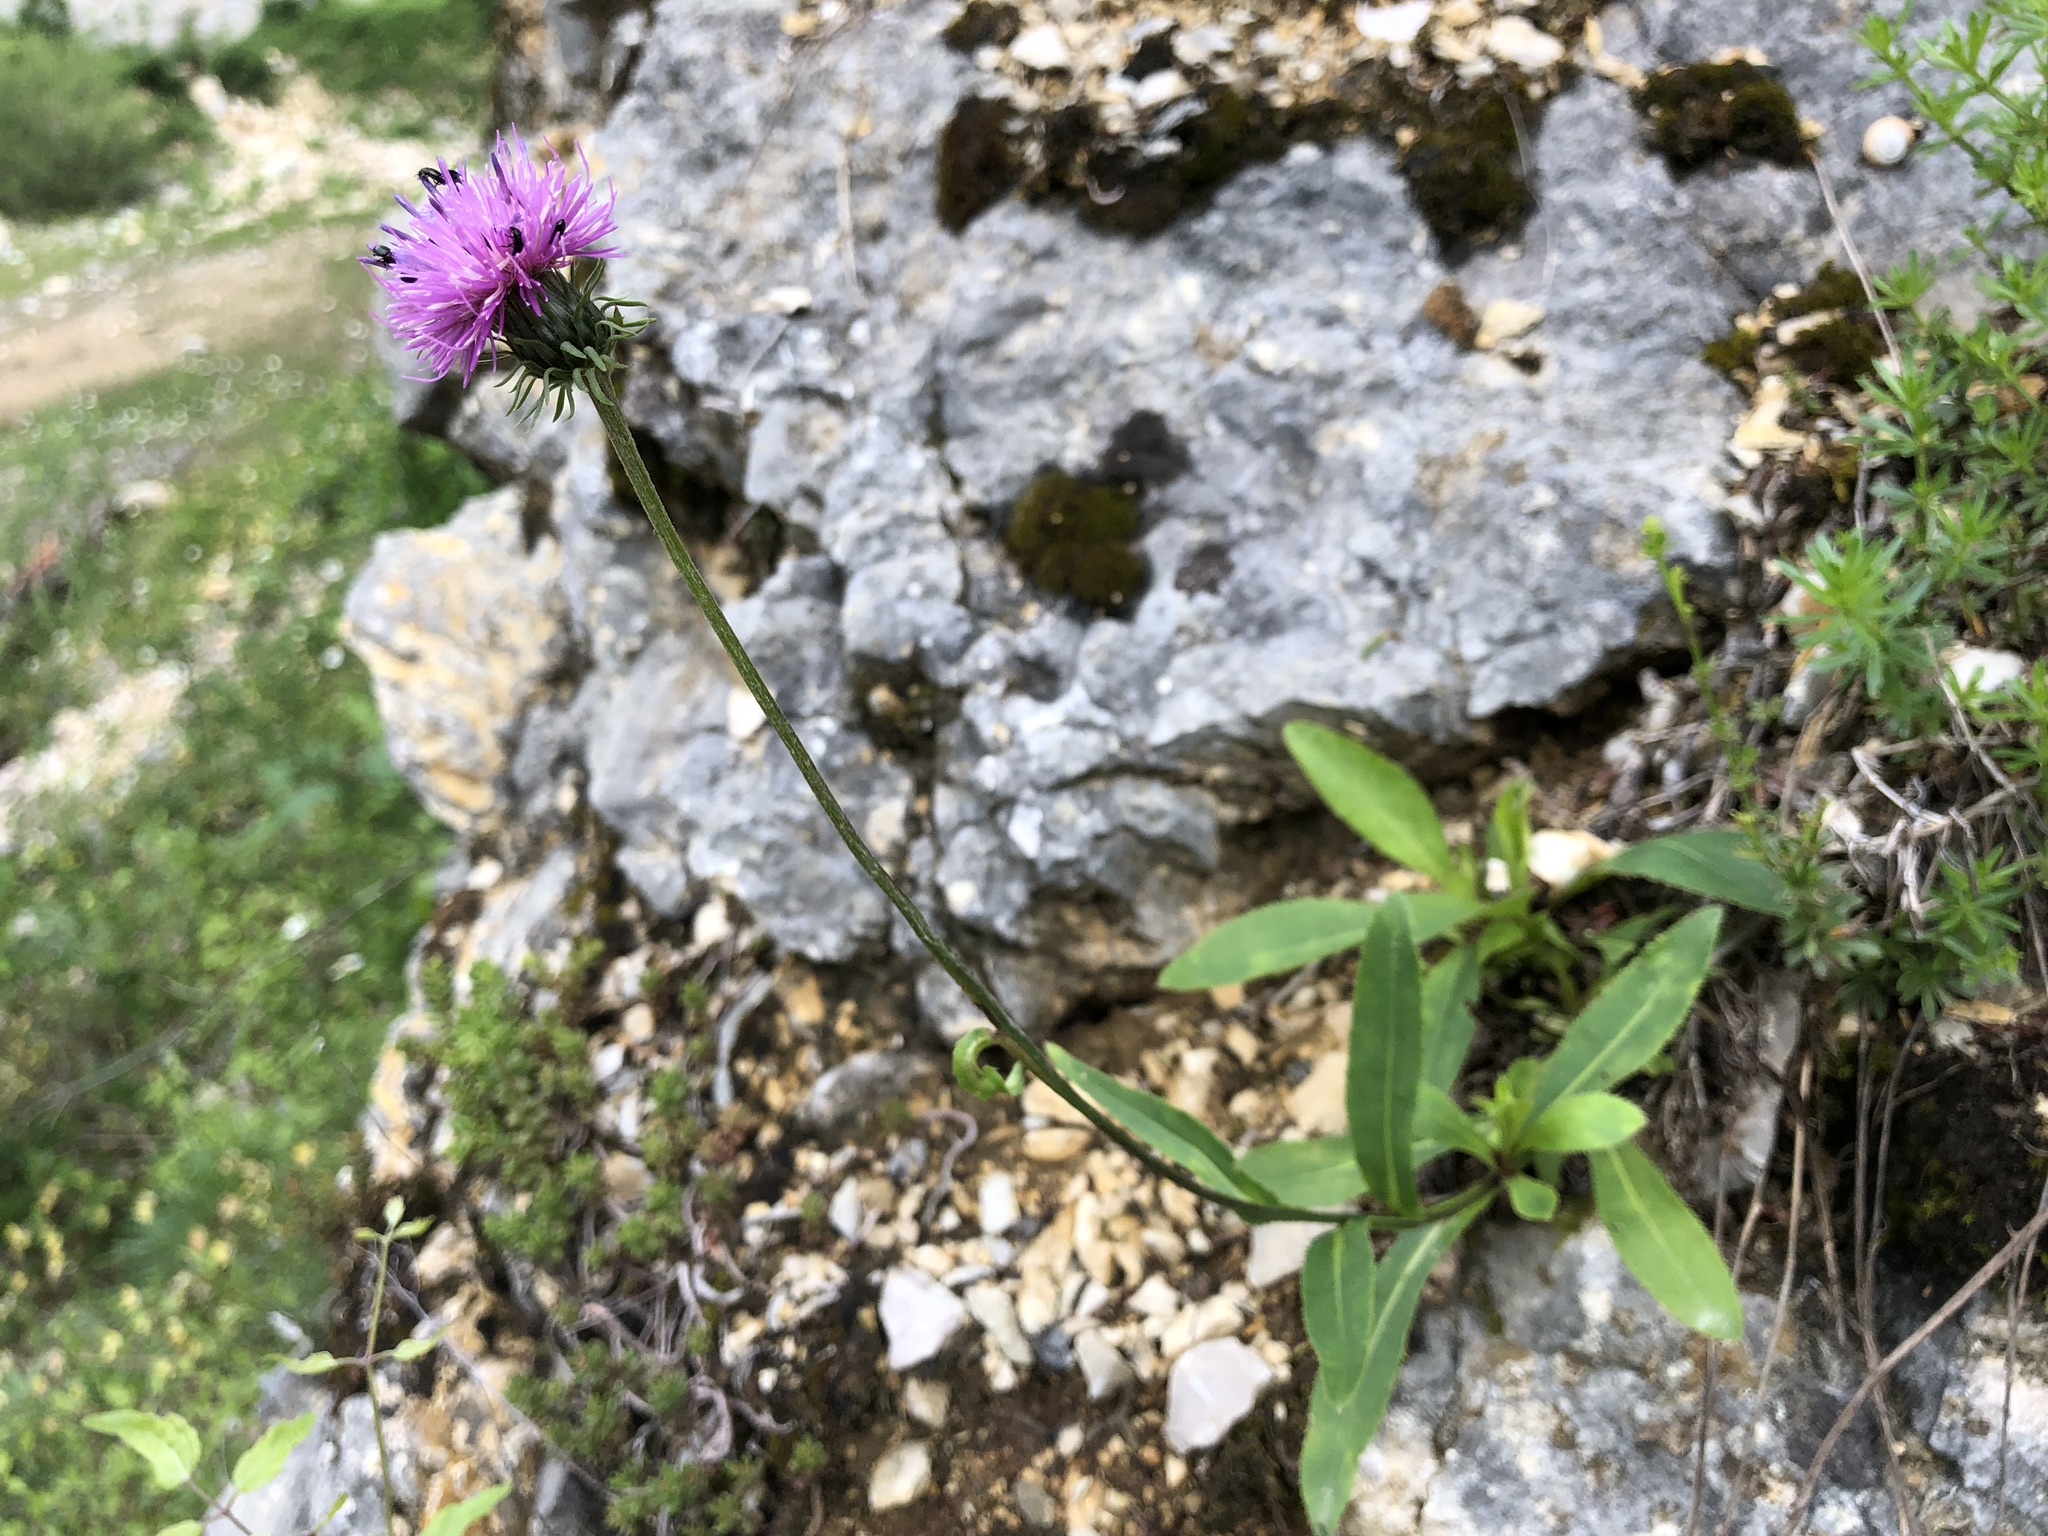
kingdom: Plantae
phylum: Tracheophyta
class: Magnoliopsida
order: Asterales
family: Asteraceae
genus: Carduus
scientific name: Carduus defloratus
